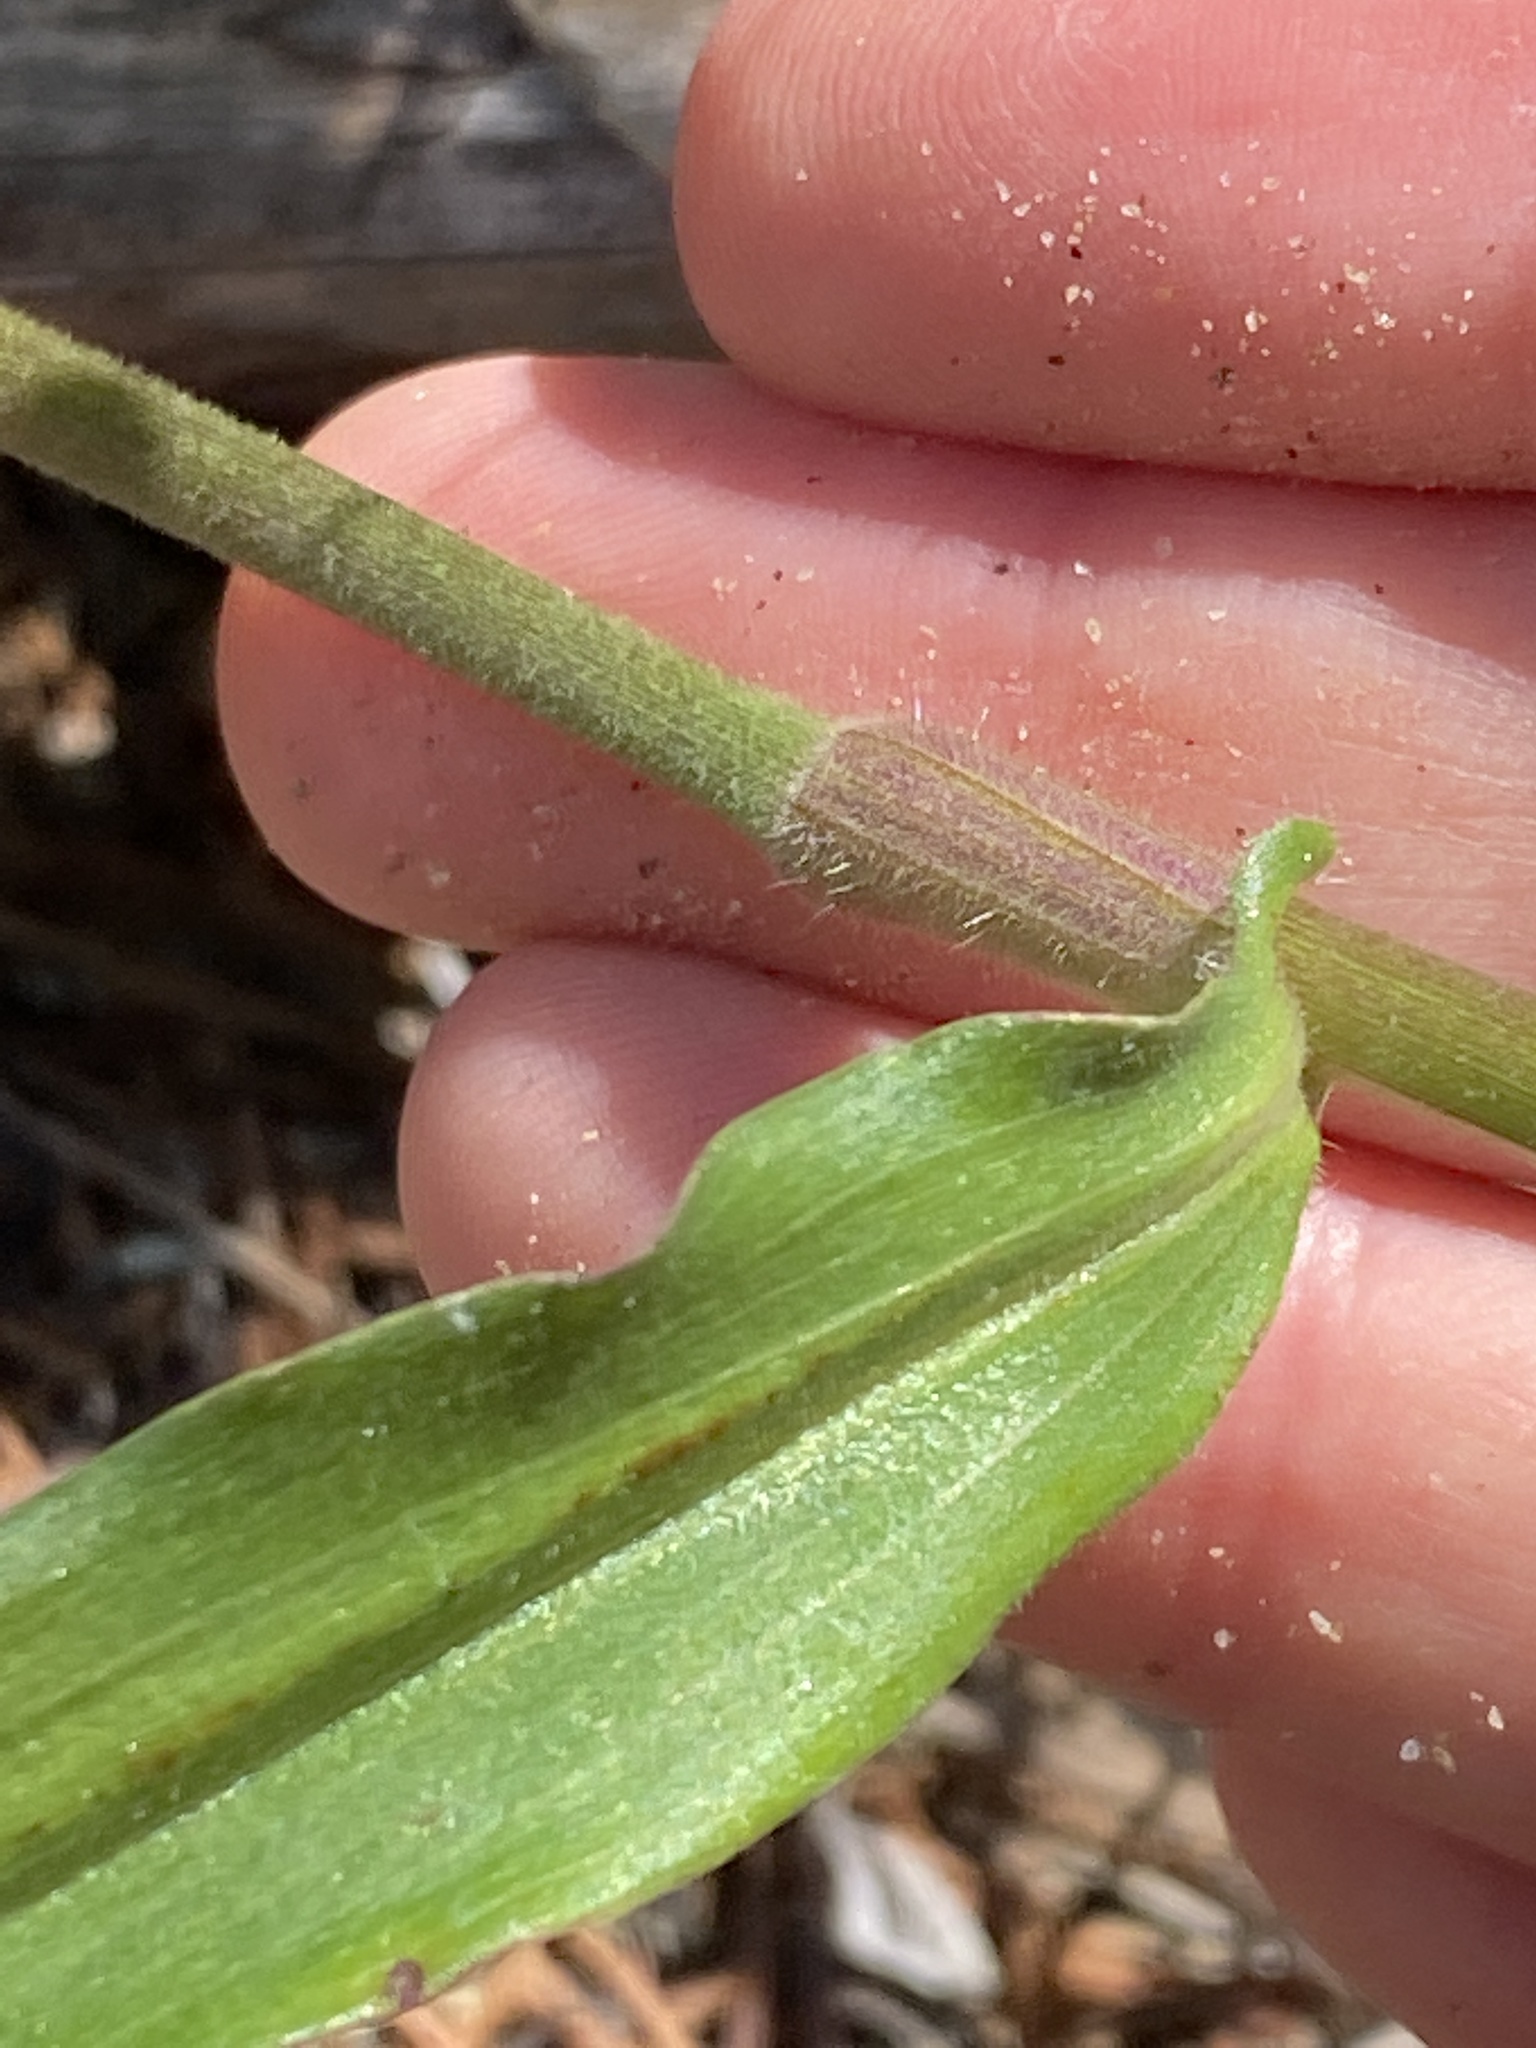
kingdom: Plantae
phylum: Tracheophyta
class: Liliopsida
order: Commelinales
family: Commelinaceae
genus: Commelina
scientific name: Commelina erecta
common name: Blousel blommetjie
